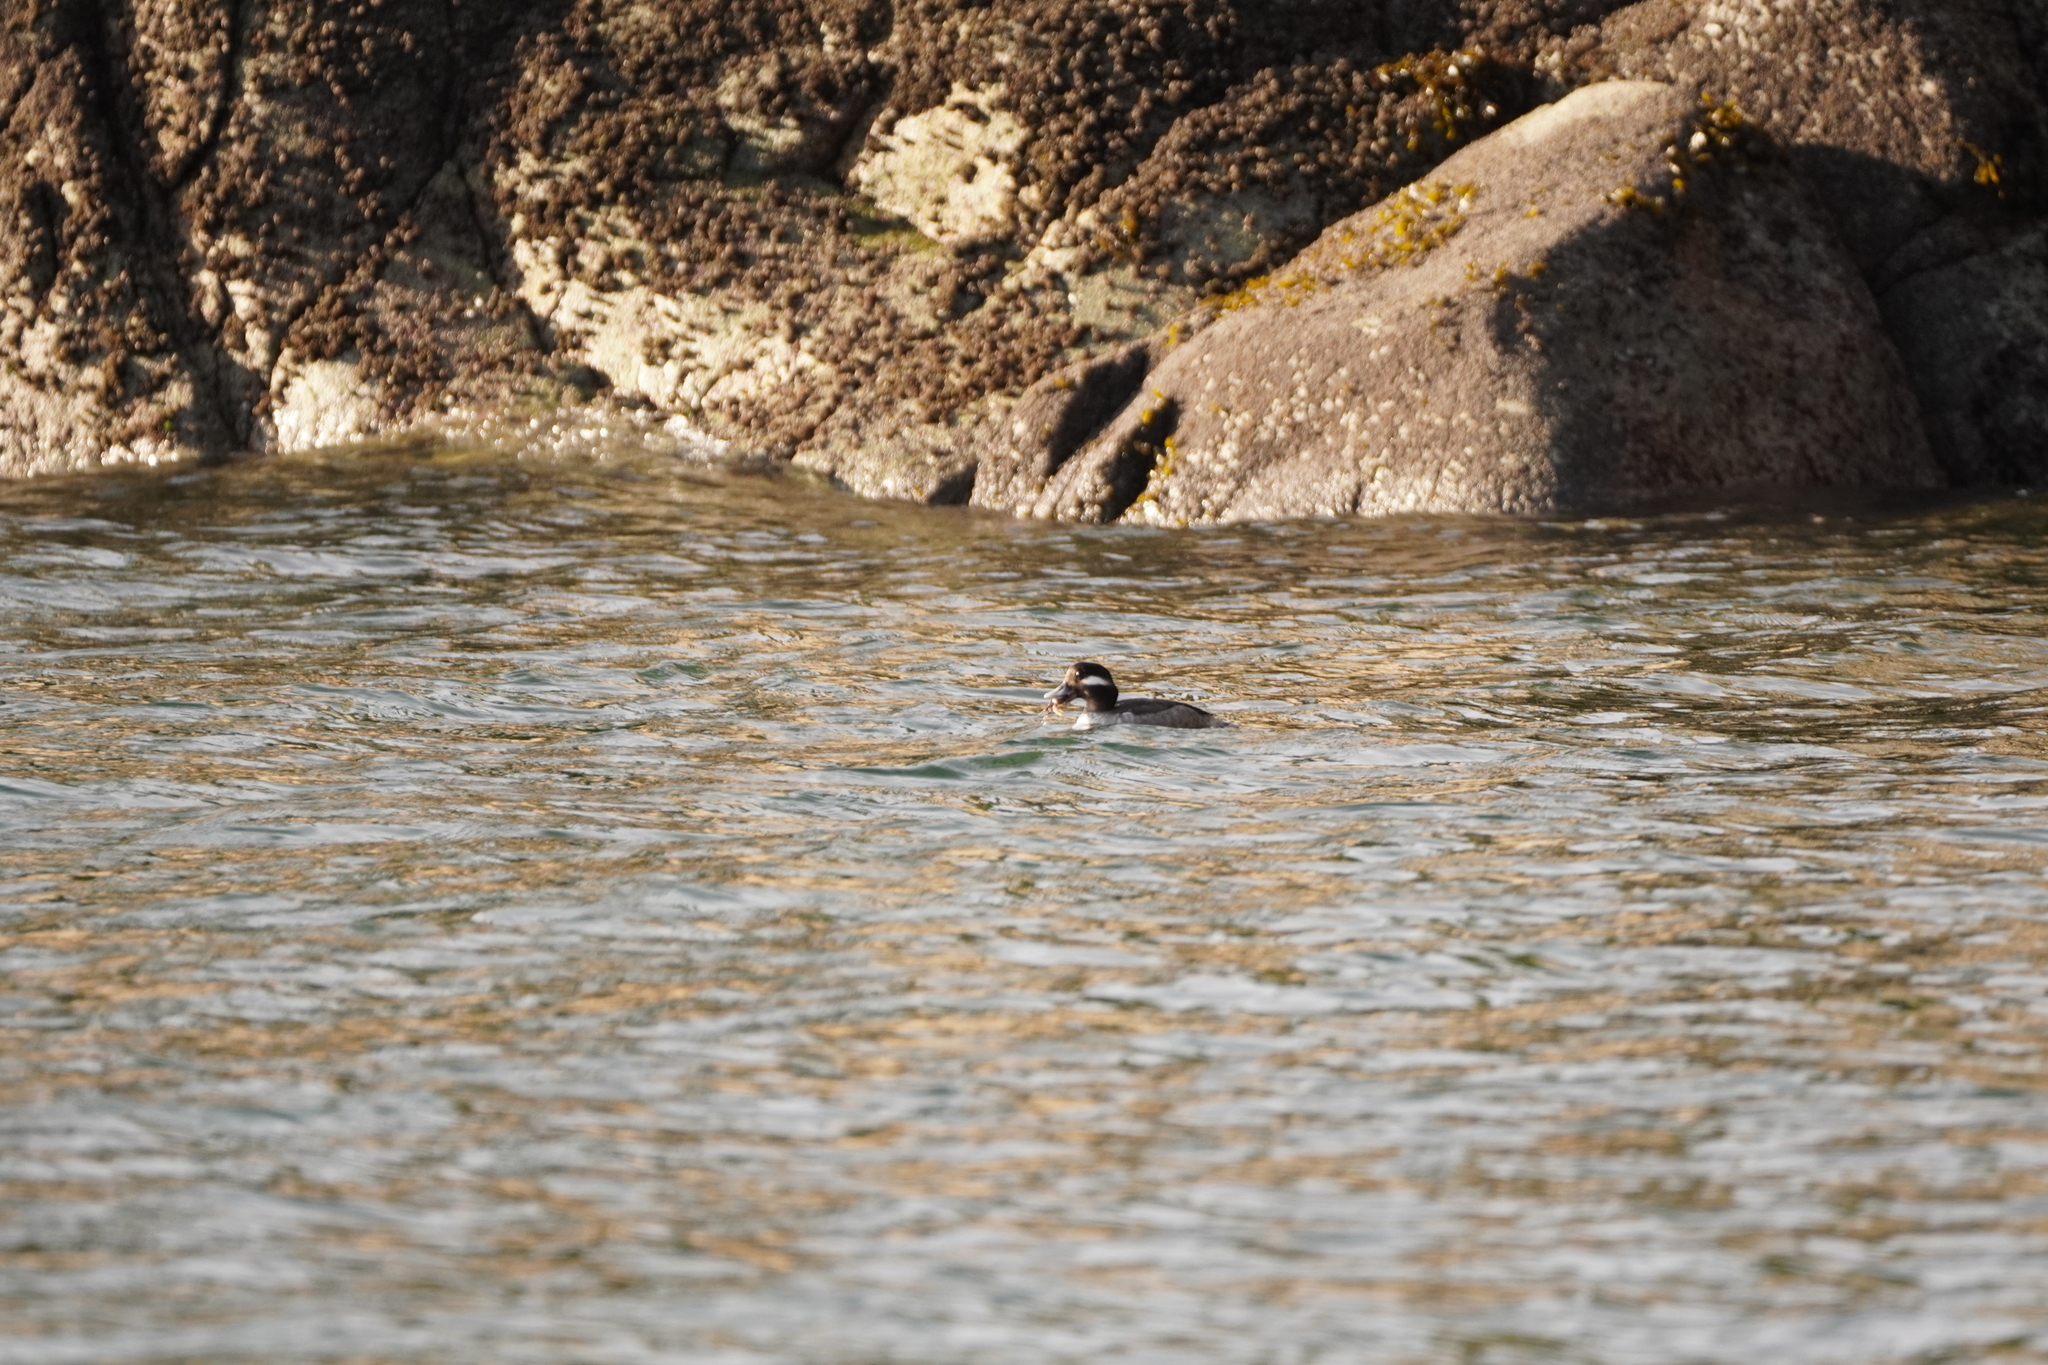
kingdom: Animalia
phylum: Chordata
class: Aves
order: Anseriformes
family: Anatidae
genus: Bucephala
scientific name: Bucephala albeola
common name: Bufflehead
